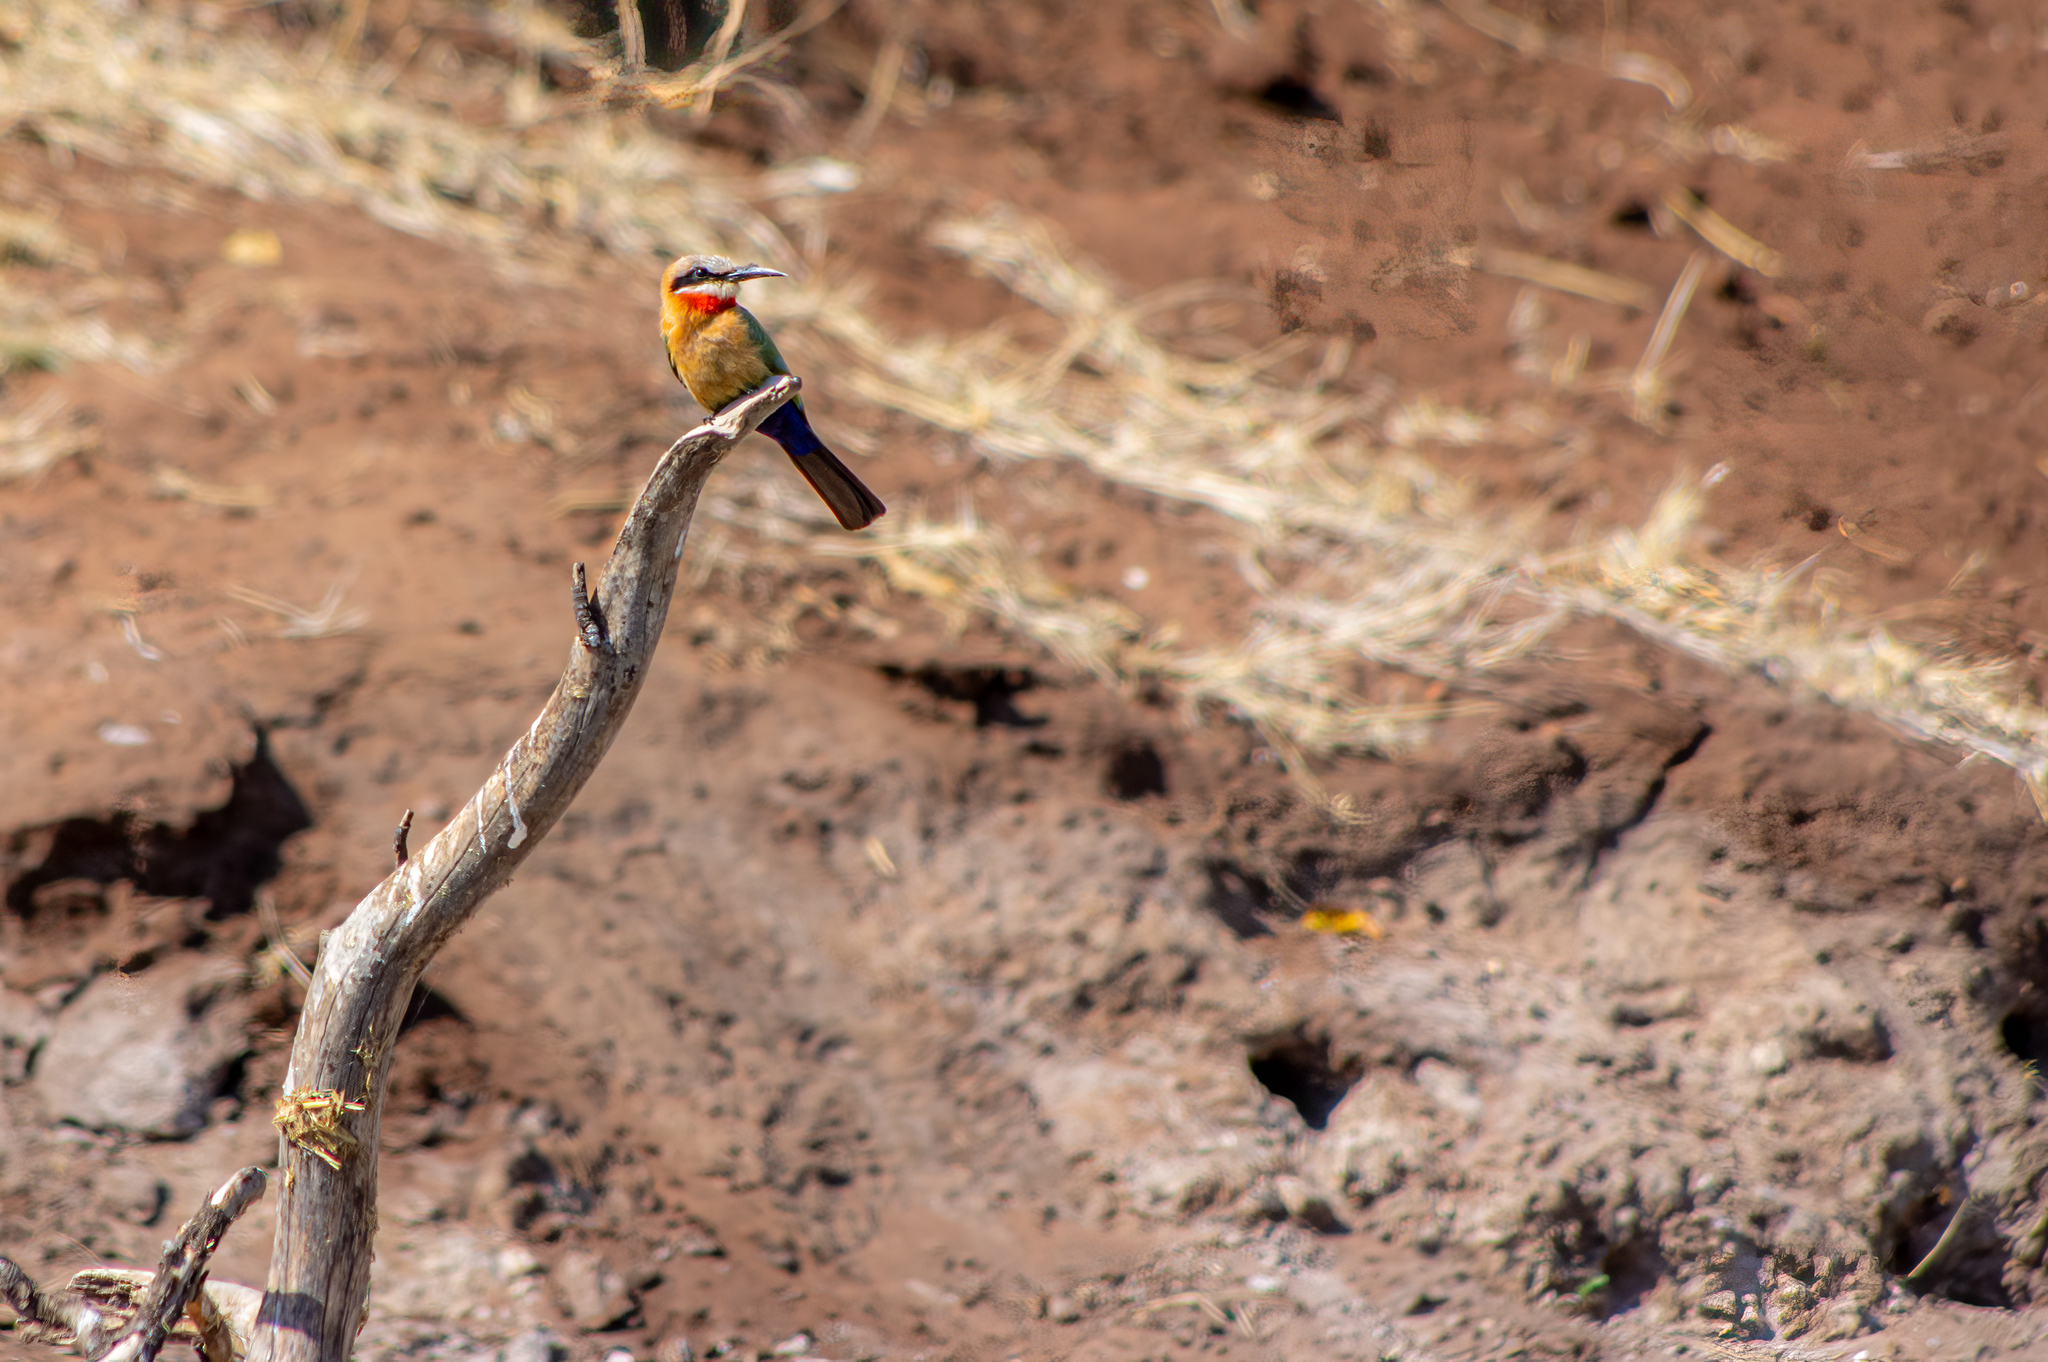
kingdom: Animalia
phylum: Chordata
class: Aves
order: Coraciiformes
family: Meropidae
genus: Merops
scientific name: Merops bullockoides
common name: White-fronted bee-eater
